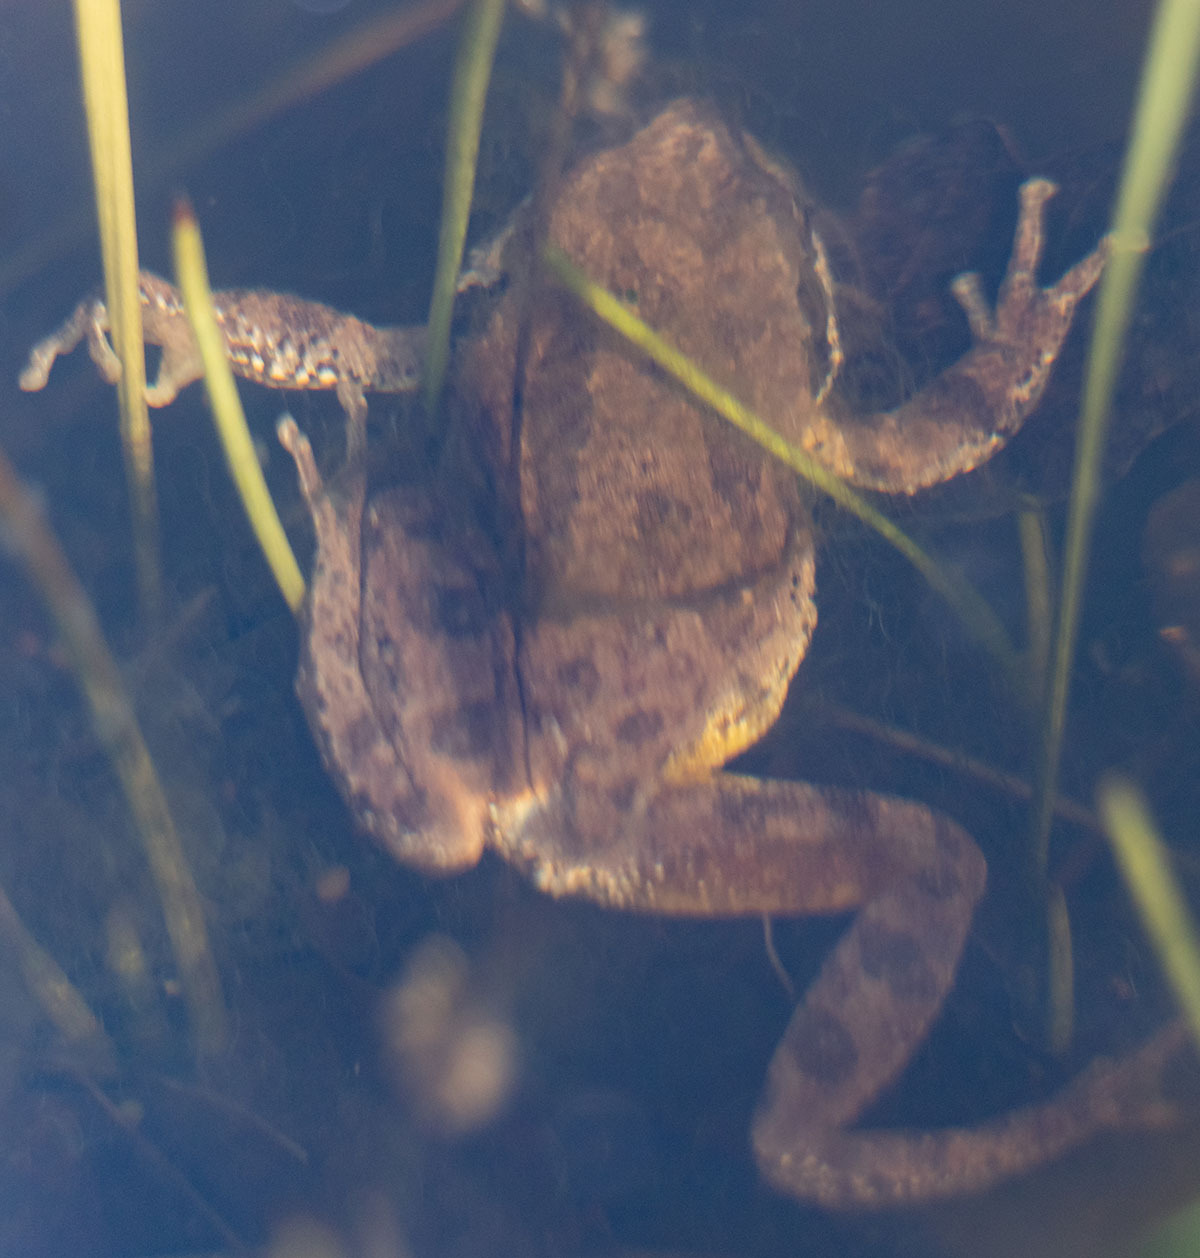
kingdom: Animalia
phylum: Chordata
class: Amphibia
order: Anura
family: Hylidae
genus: Pseudacris
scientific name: Pseudacris regilla
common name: Pacific chorus frog
